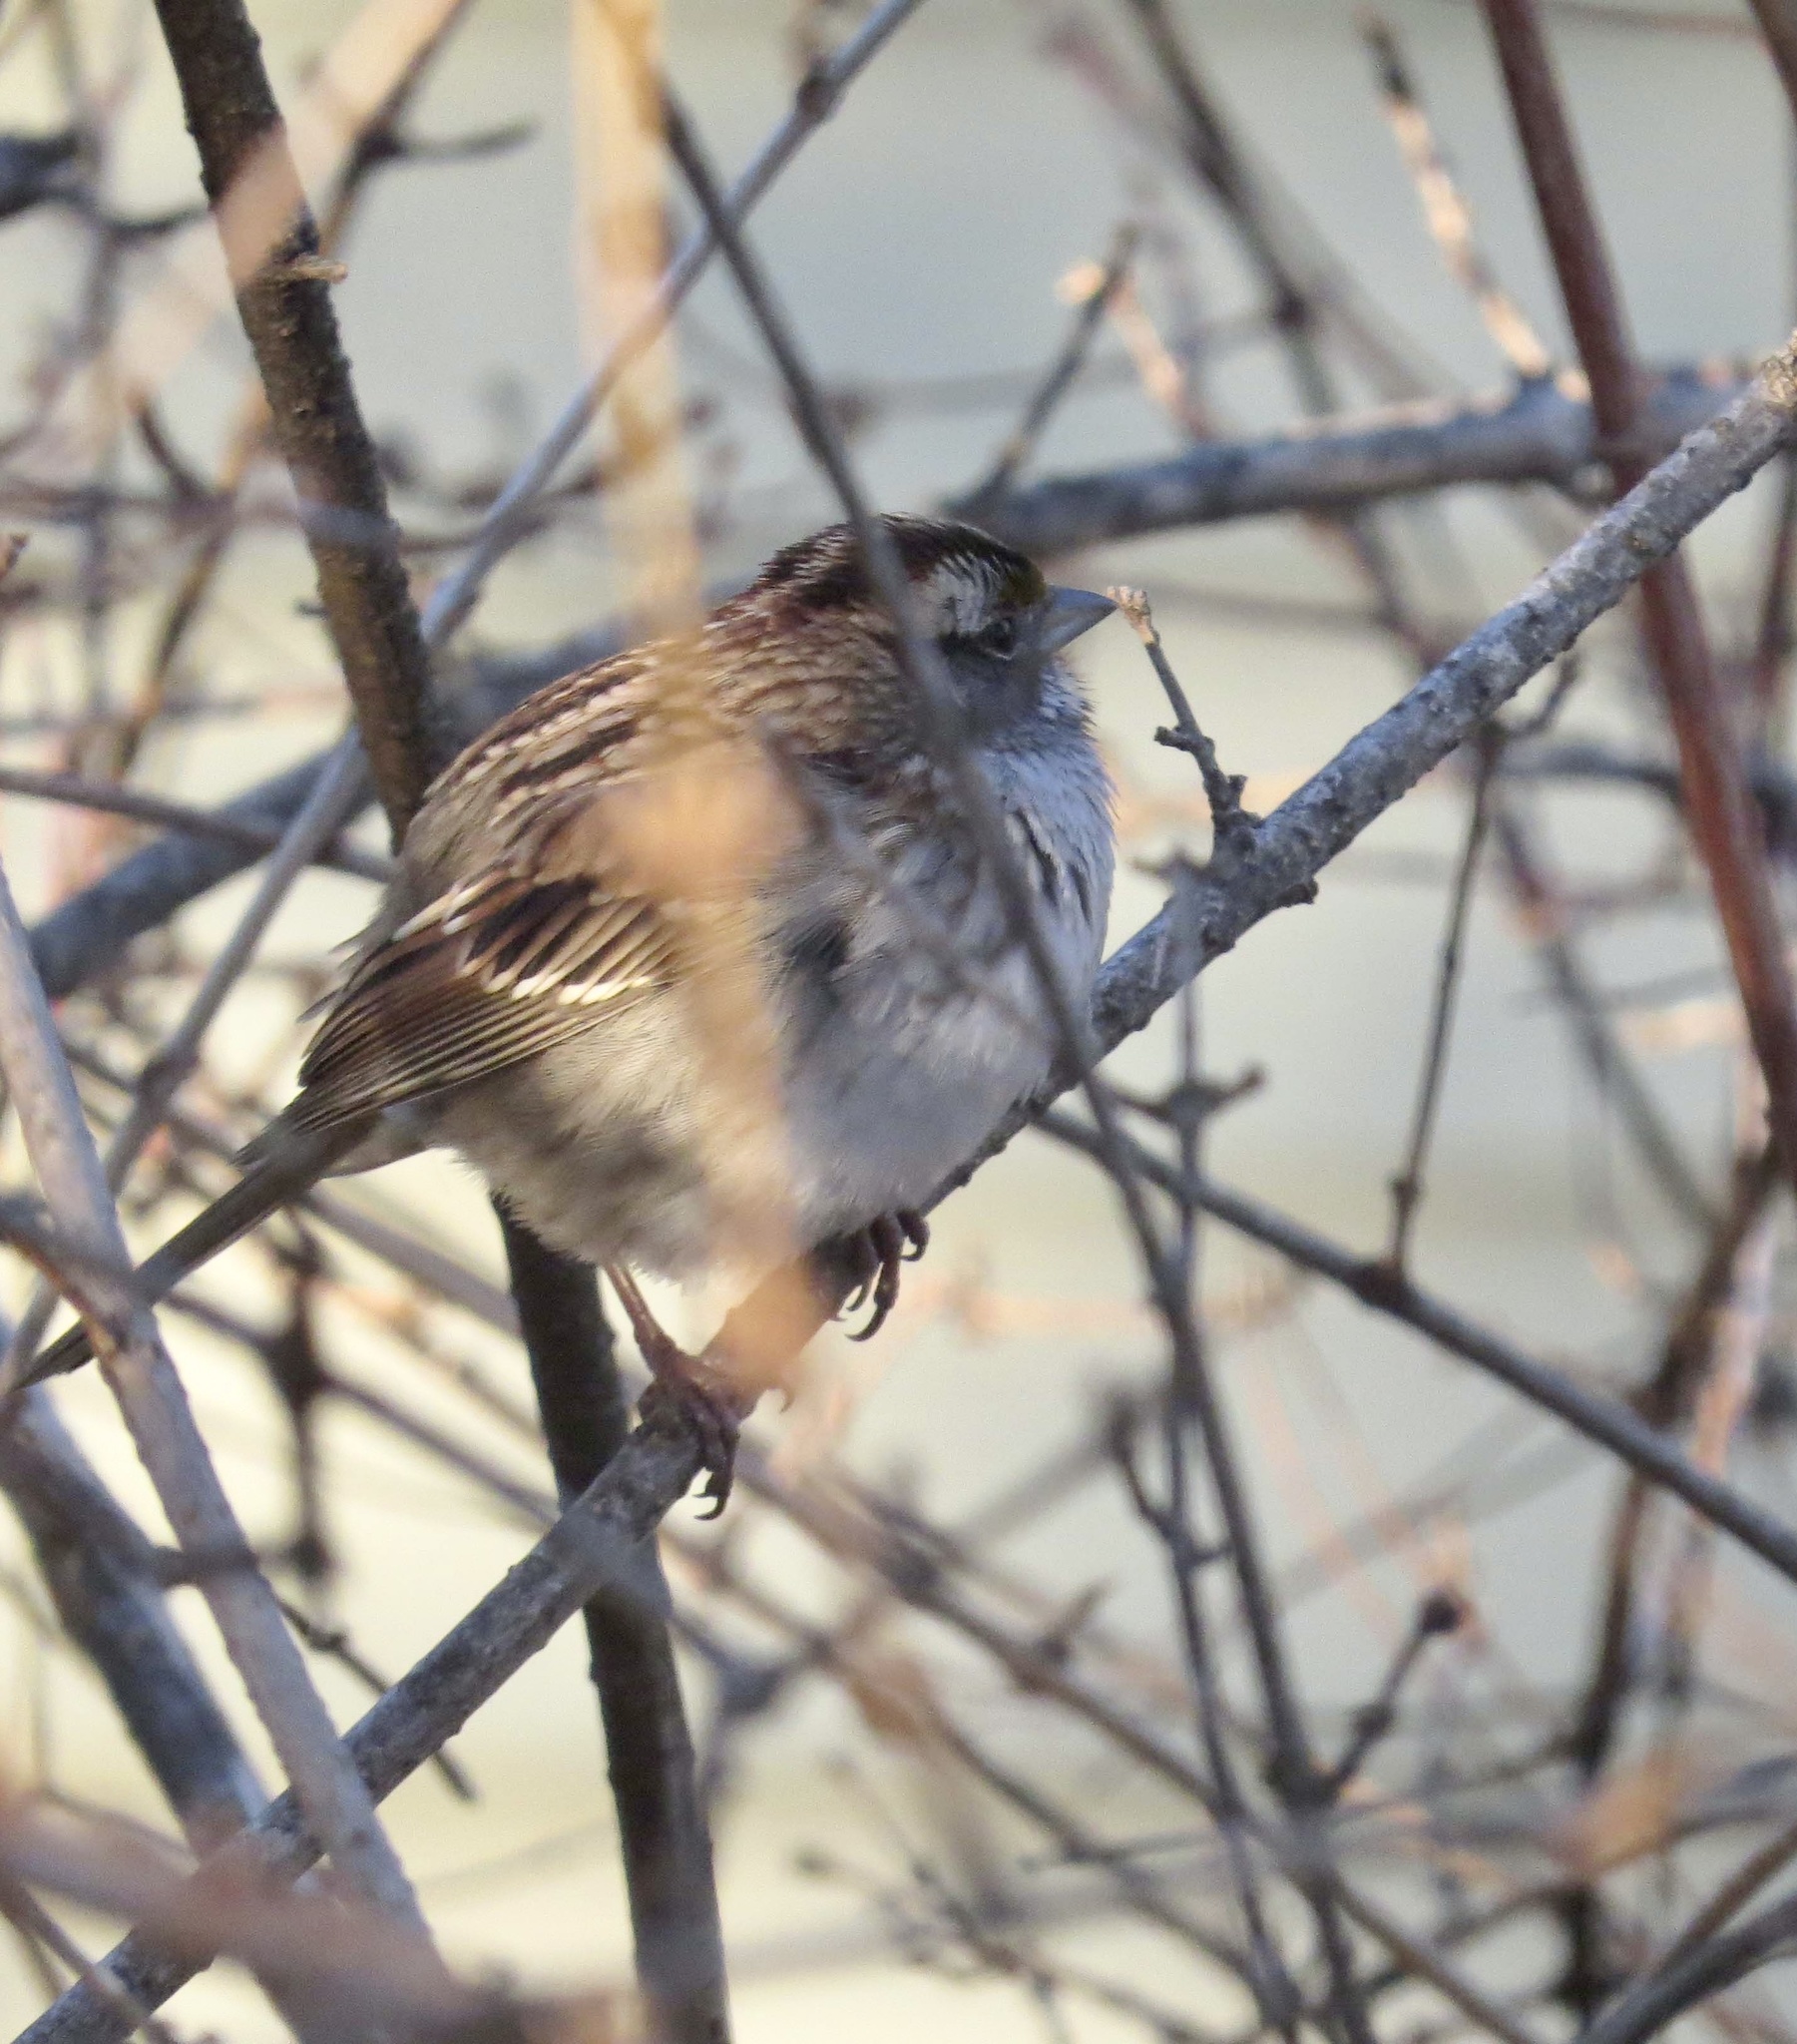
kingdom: Animalia
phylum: Chordata
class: Aves
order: Passeriformes
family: Passerellidae
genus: Zonotrichia
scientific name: Zonotrichia albicollis
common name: White-throated sparrow
